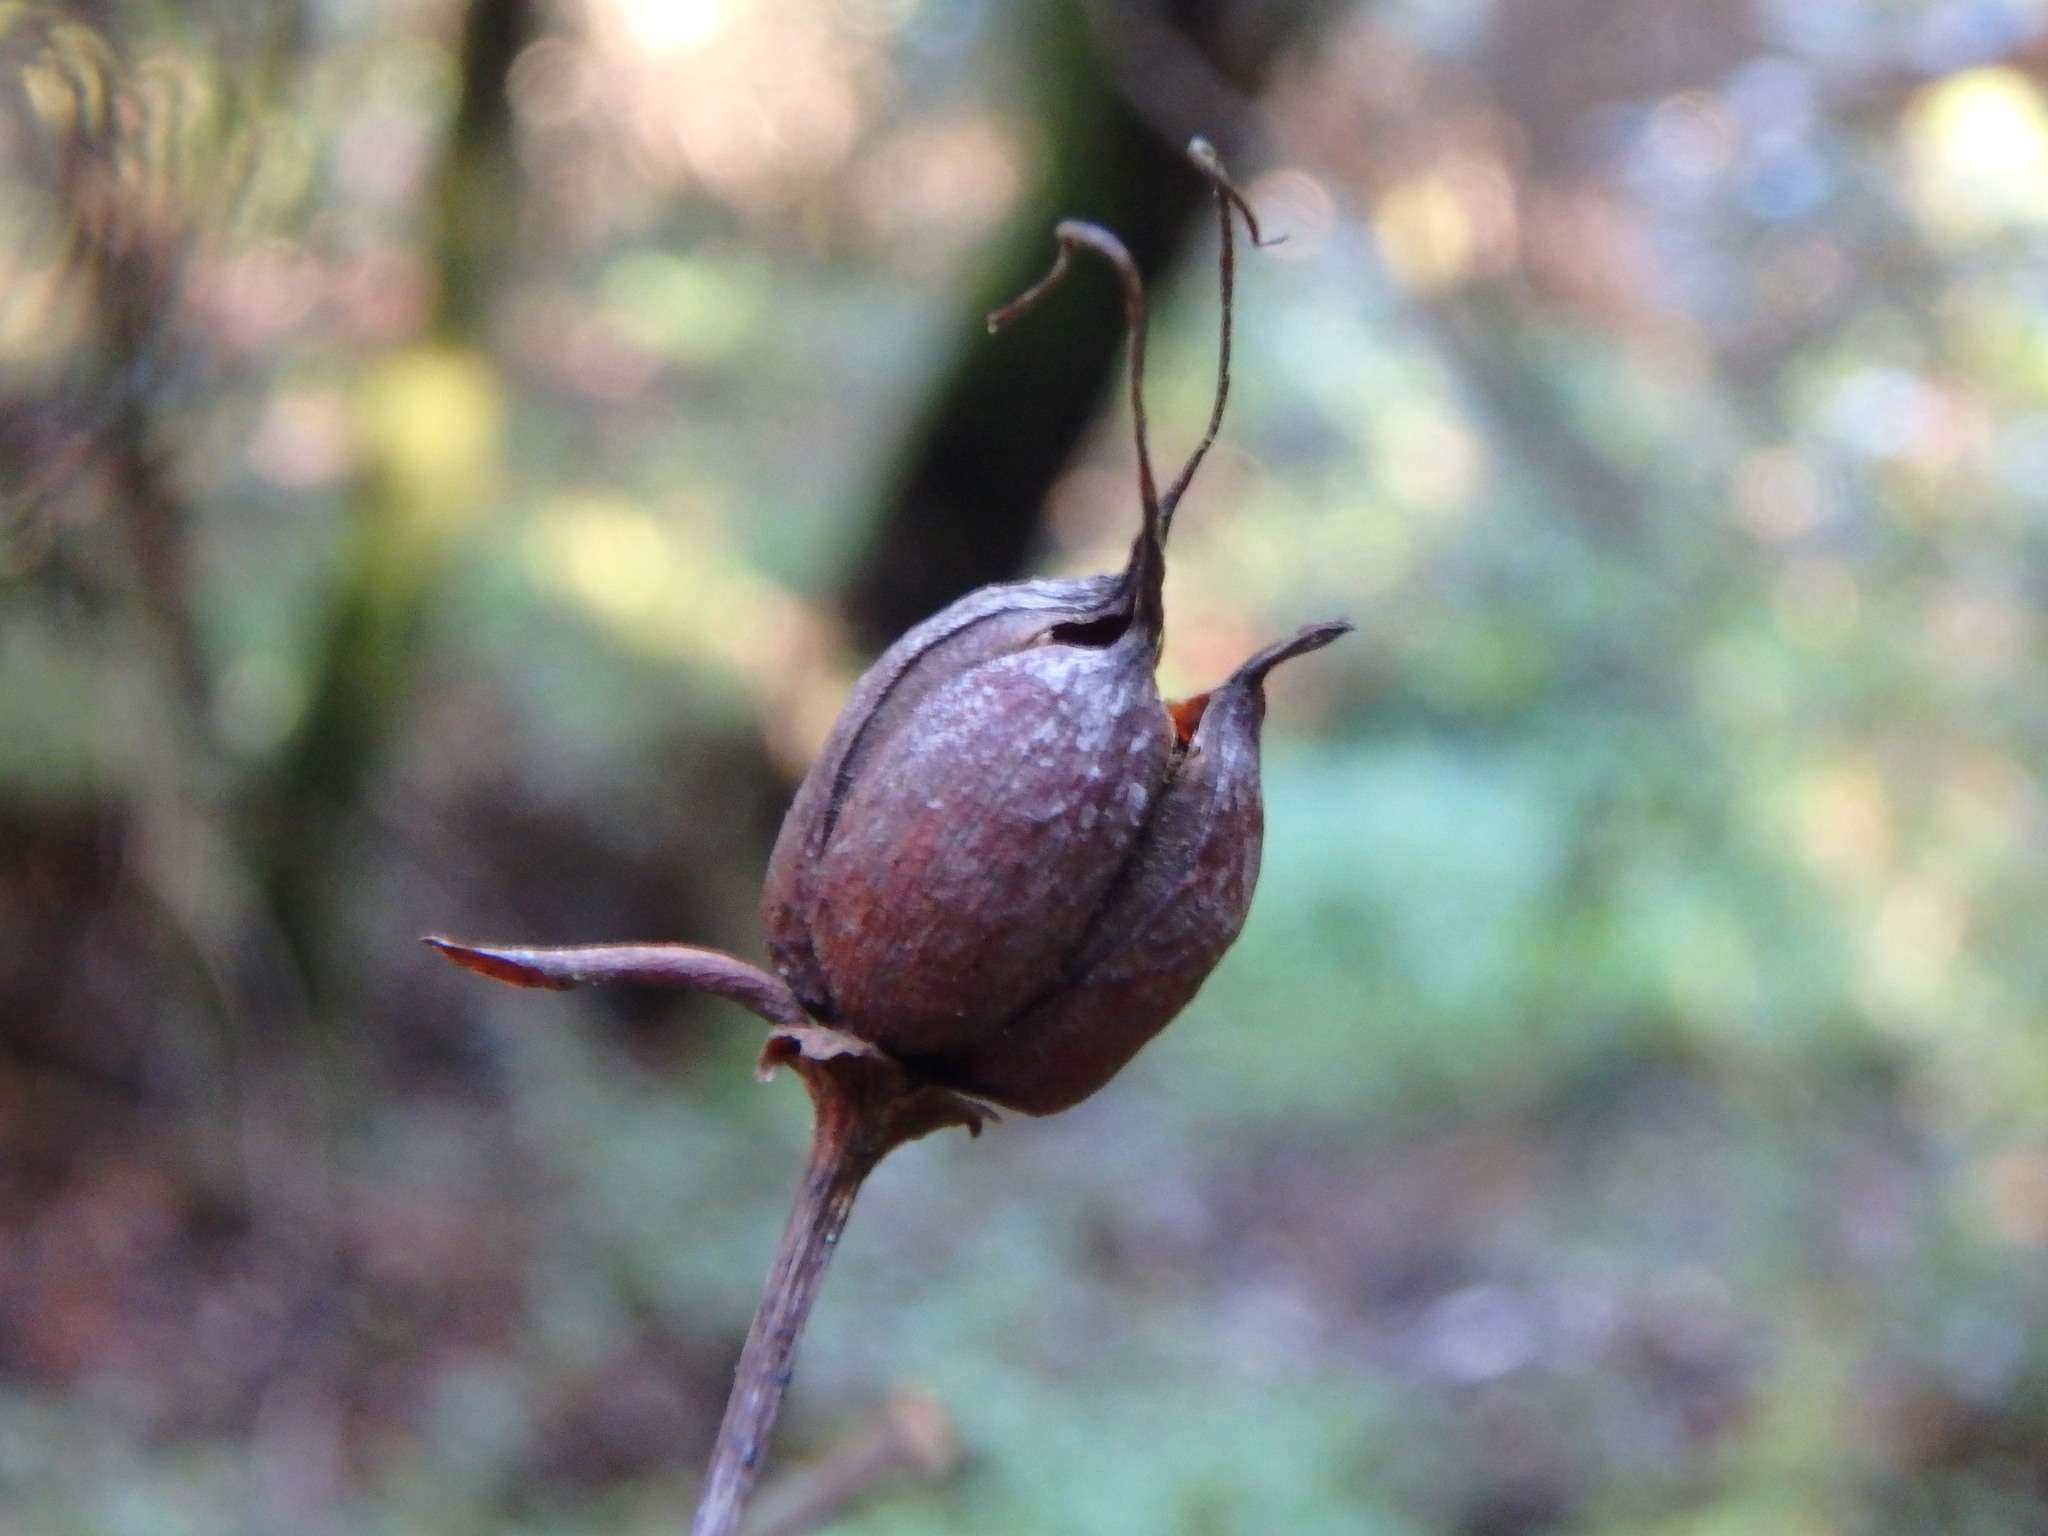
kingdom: Plantae
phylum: Tracheophyta
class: Magnoliopsida
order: Malpighiales
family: Hypericaceae
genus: Hypericum
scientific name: Hypericum grandifolium
